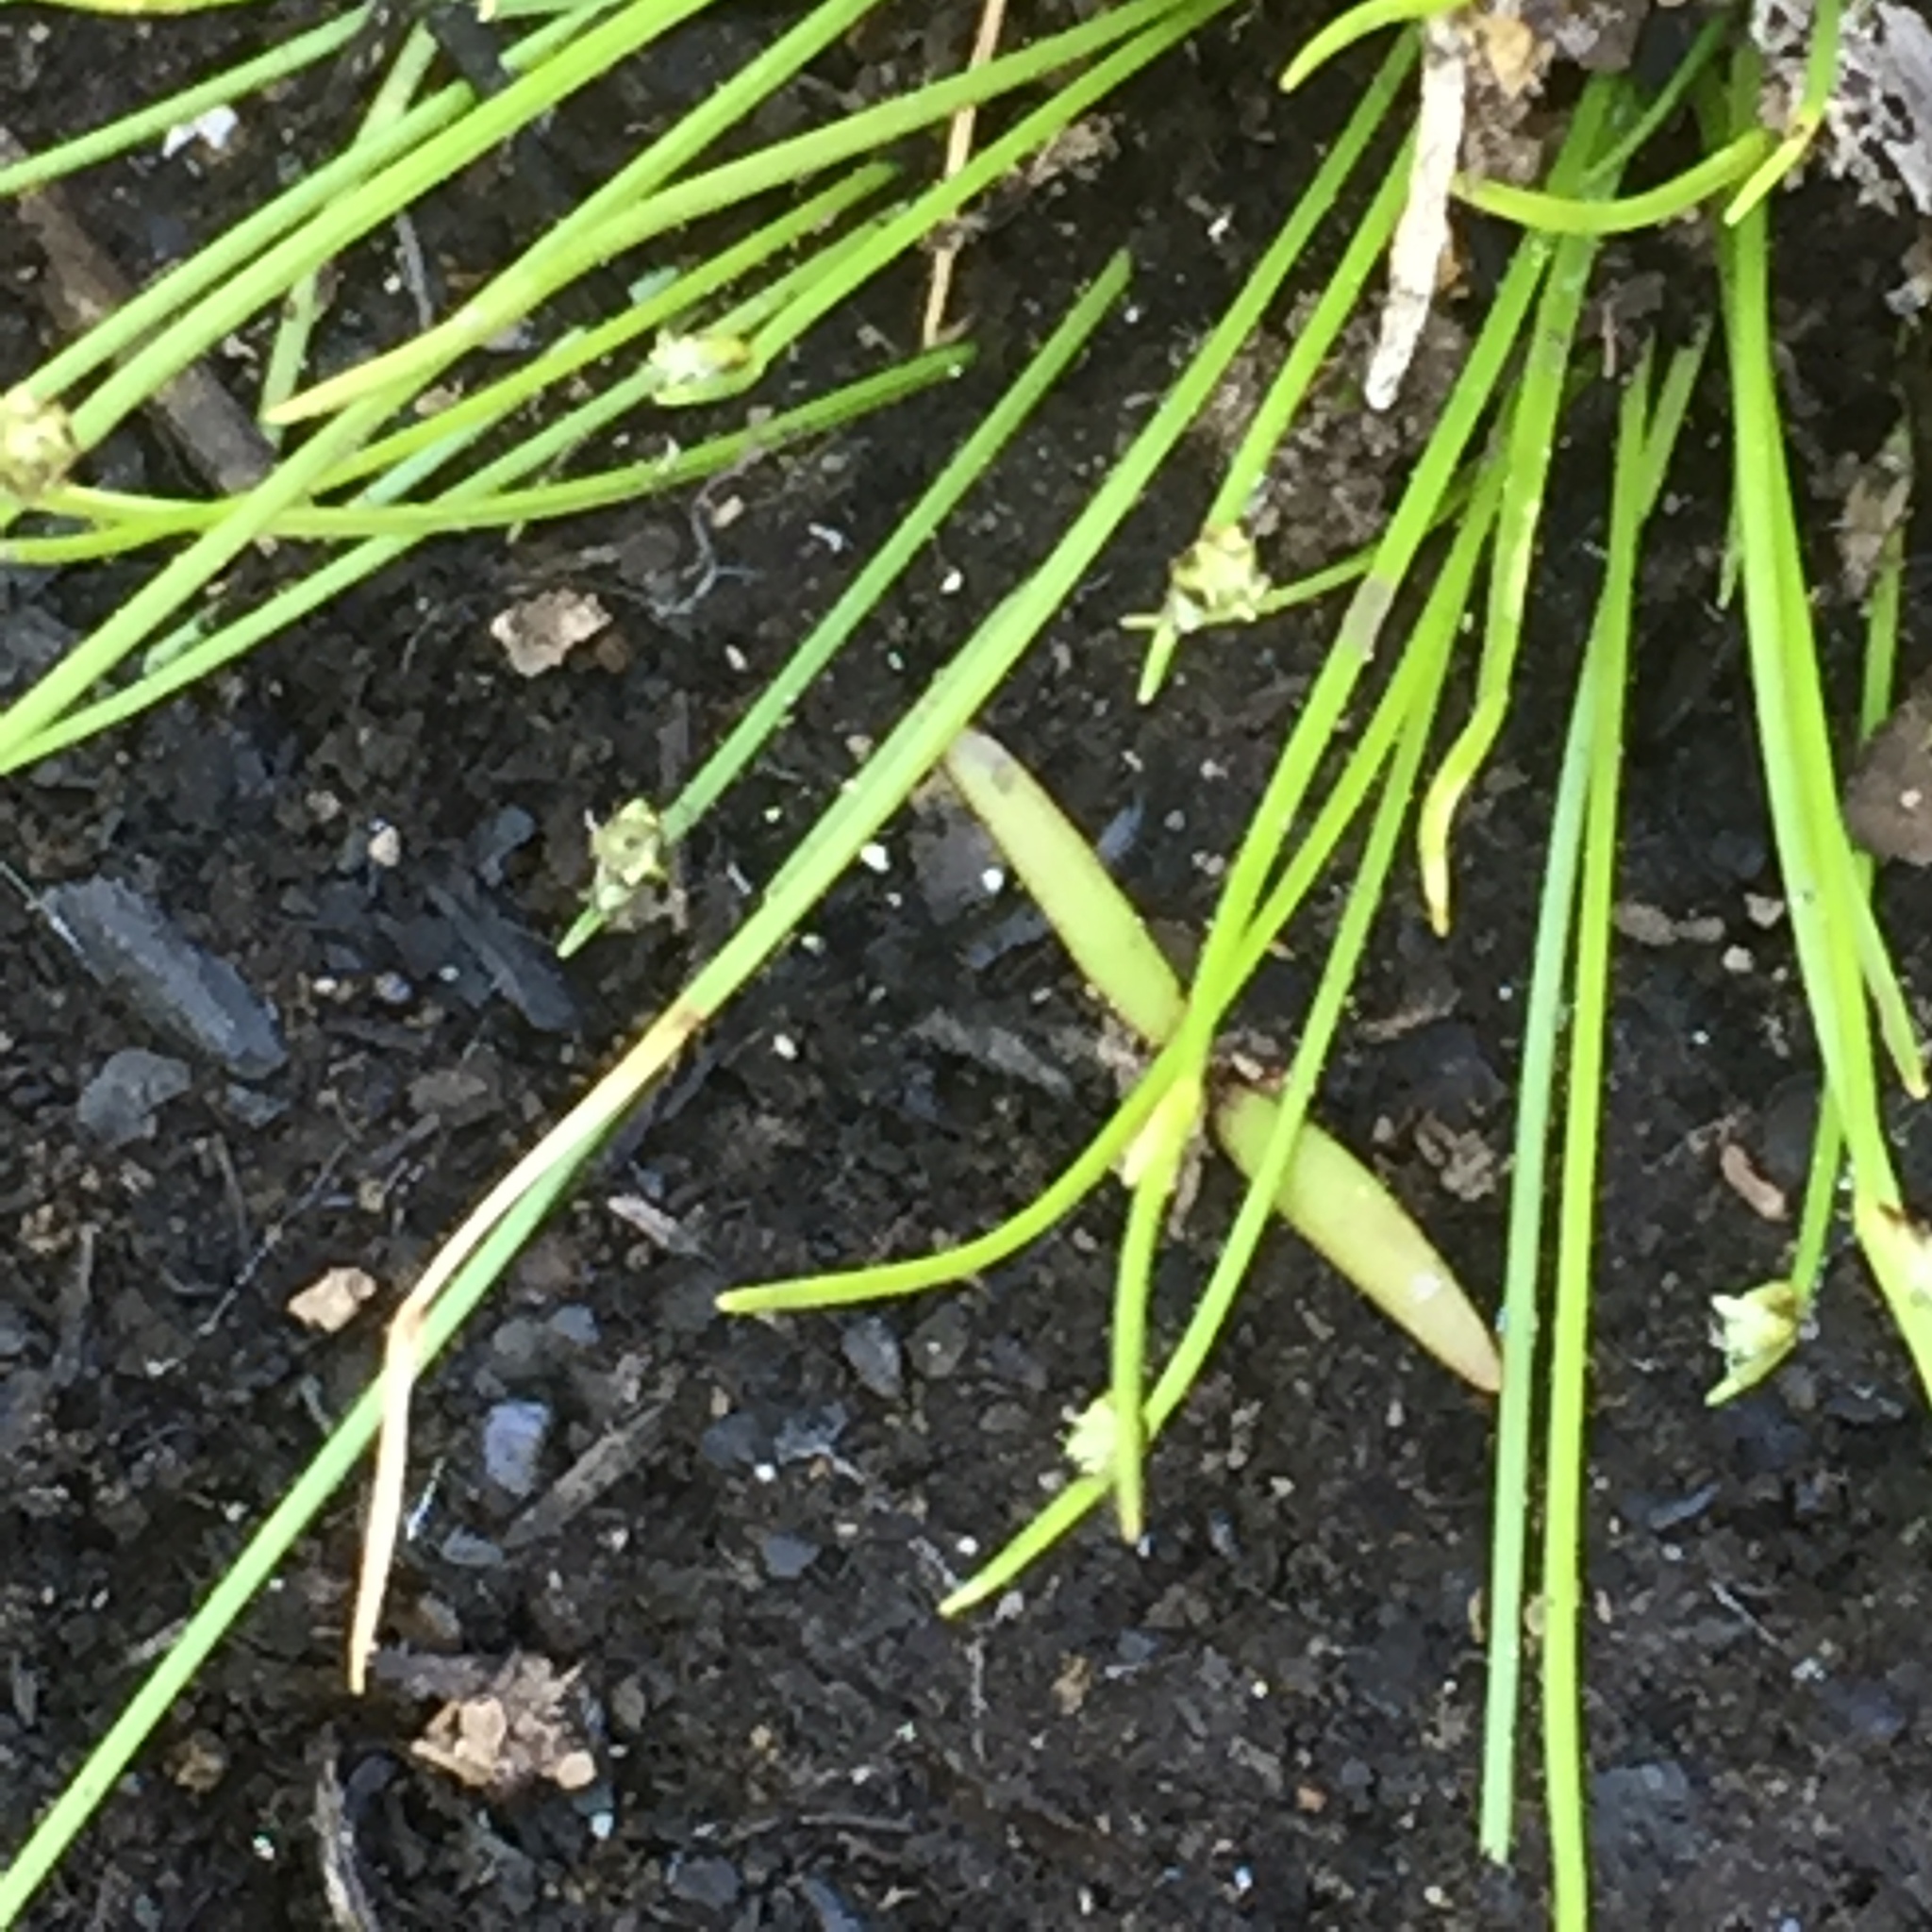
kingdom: Plantae
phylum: Tracheophyta
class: Liliopsida
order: Poales
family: Cyperaceae
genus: Isolepis
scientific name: Isolepis setacea
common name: Bristle club-rush
